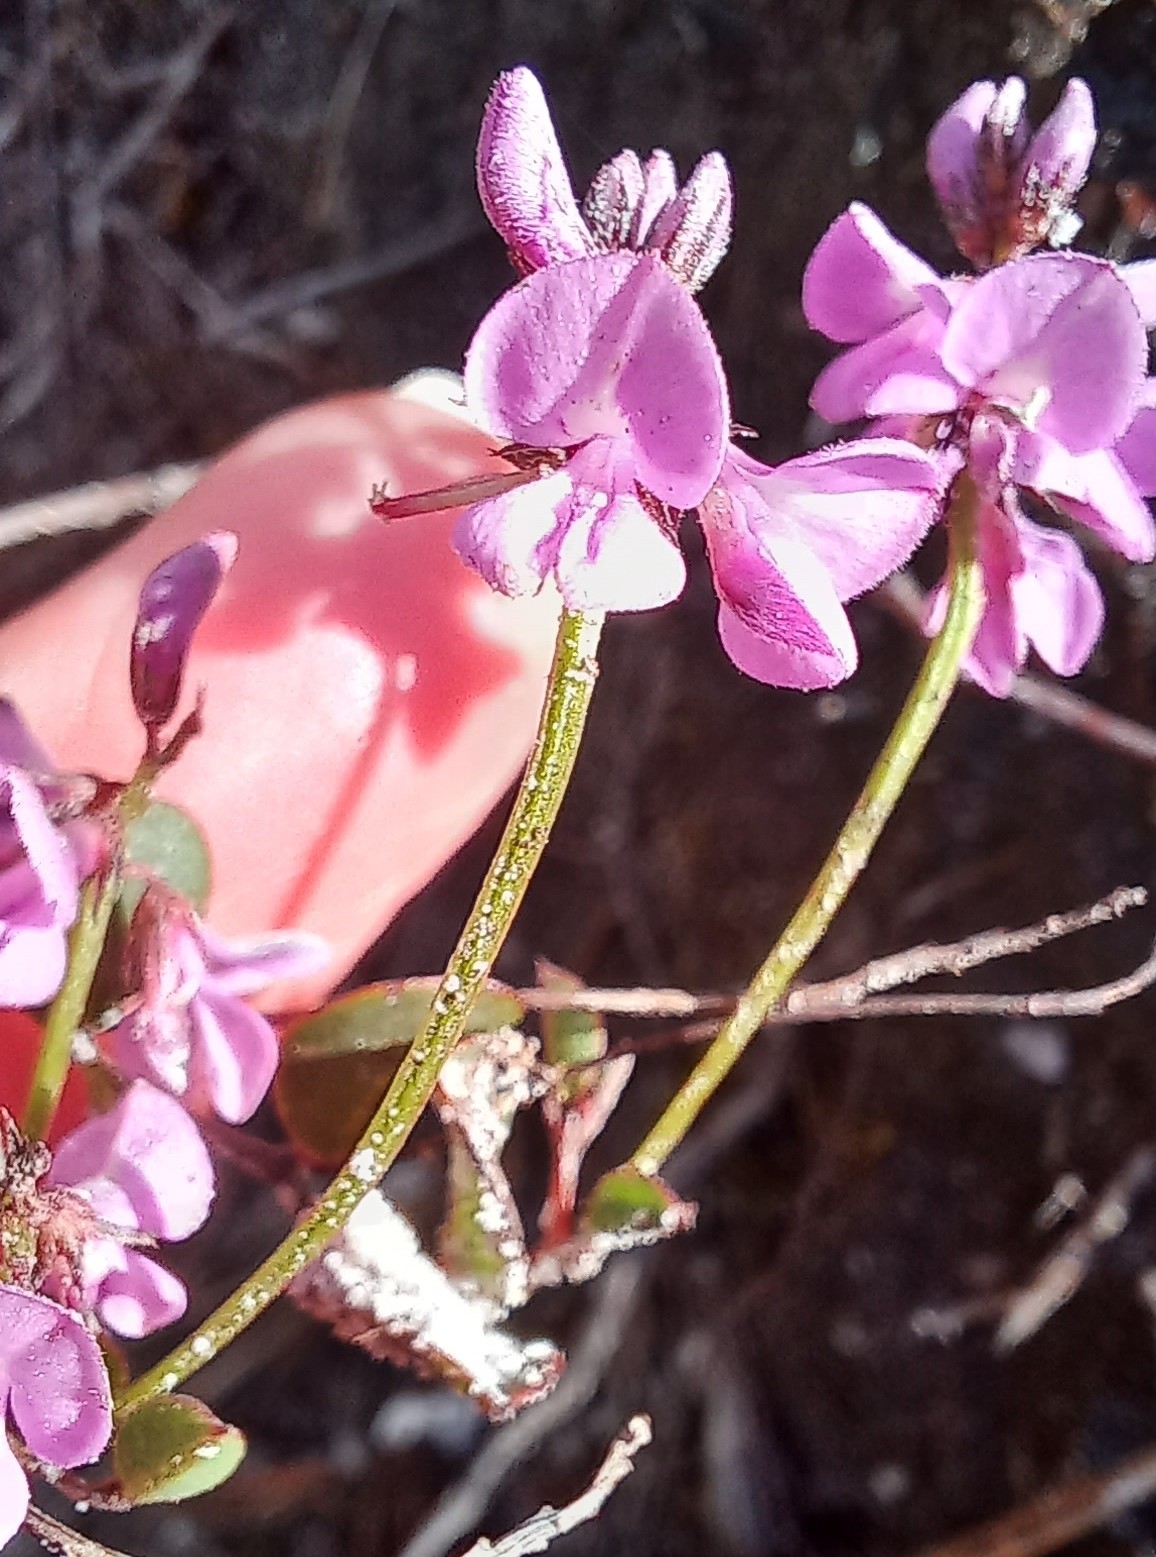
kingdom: Plantae
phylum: Tracheophyta
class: Magnoliopsida
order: Fabales
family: Fabaceae
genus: Indigofera
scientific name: Indigofera ovata
